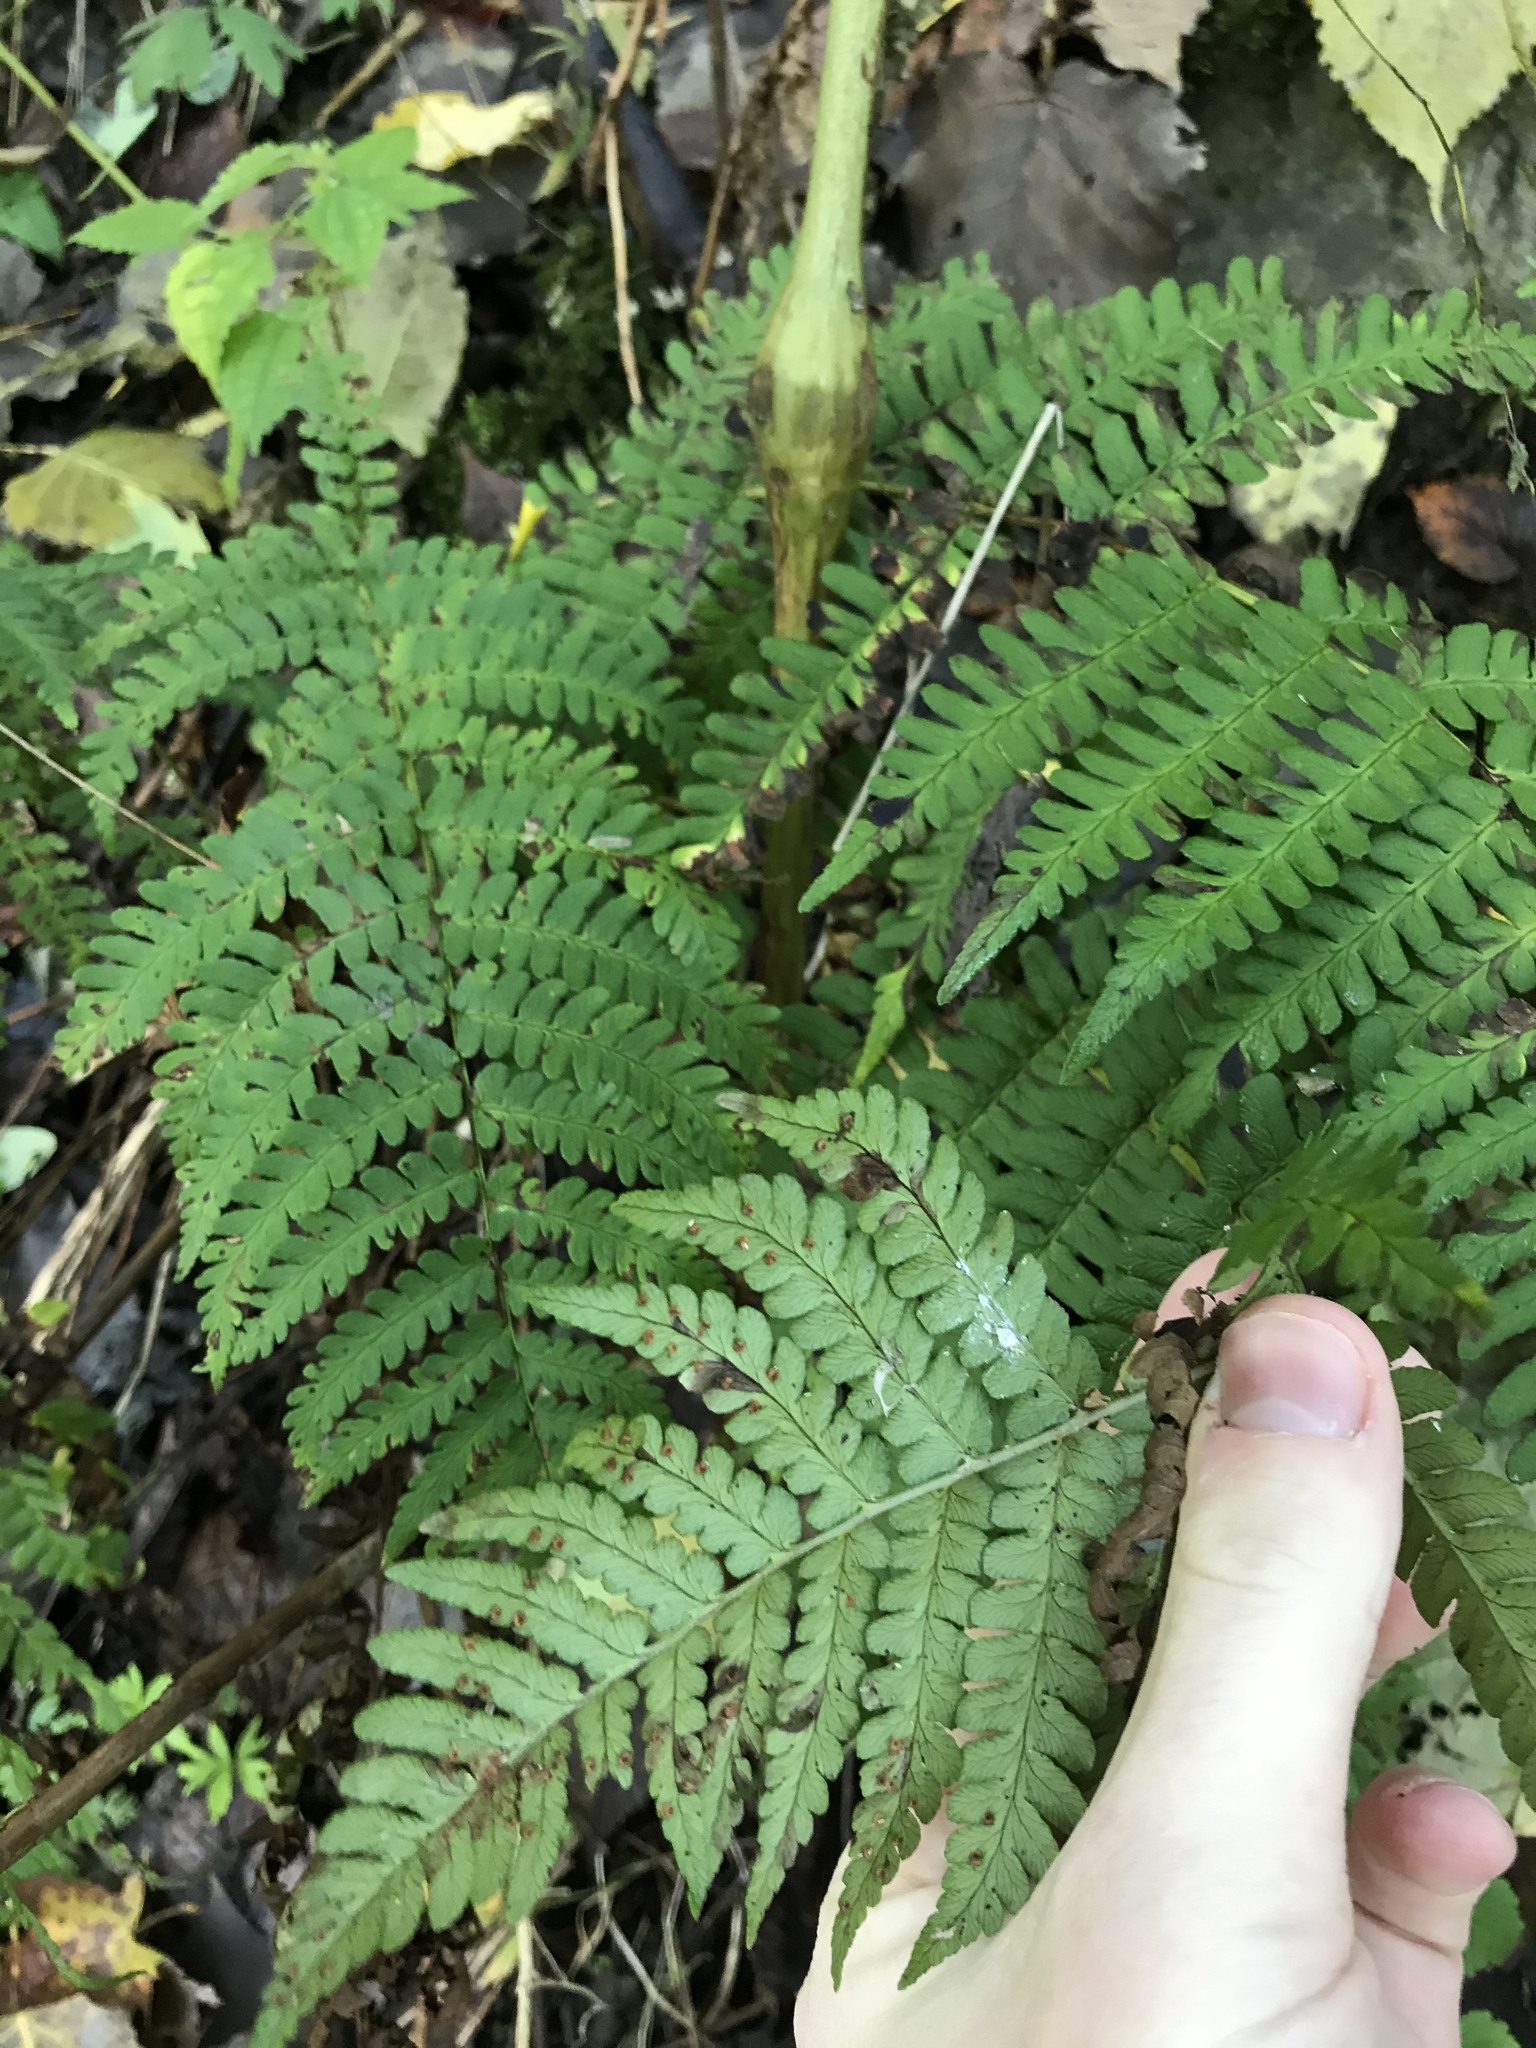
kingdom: Plantae
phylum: Tracheophyta
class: Polypodiopsida
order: Polypodiales
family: Dryopteridaceae
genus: Dryopteris
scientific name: Dryopteris marginalis
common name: Marginal wood fern
